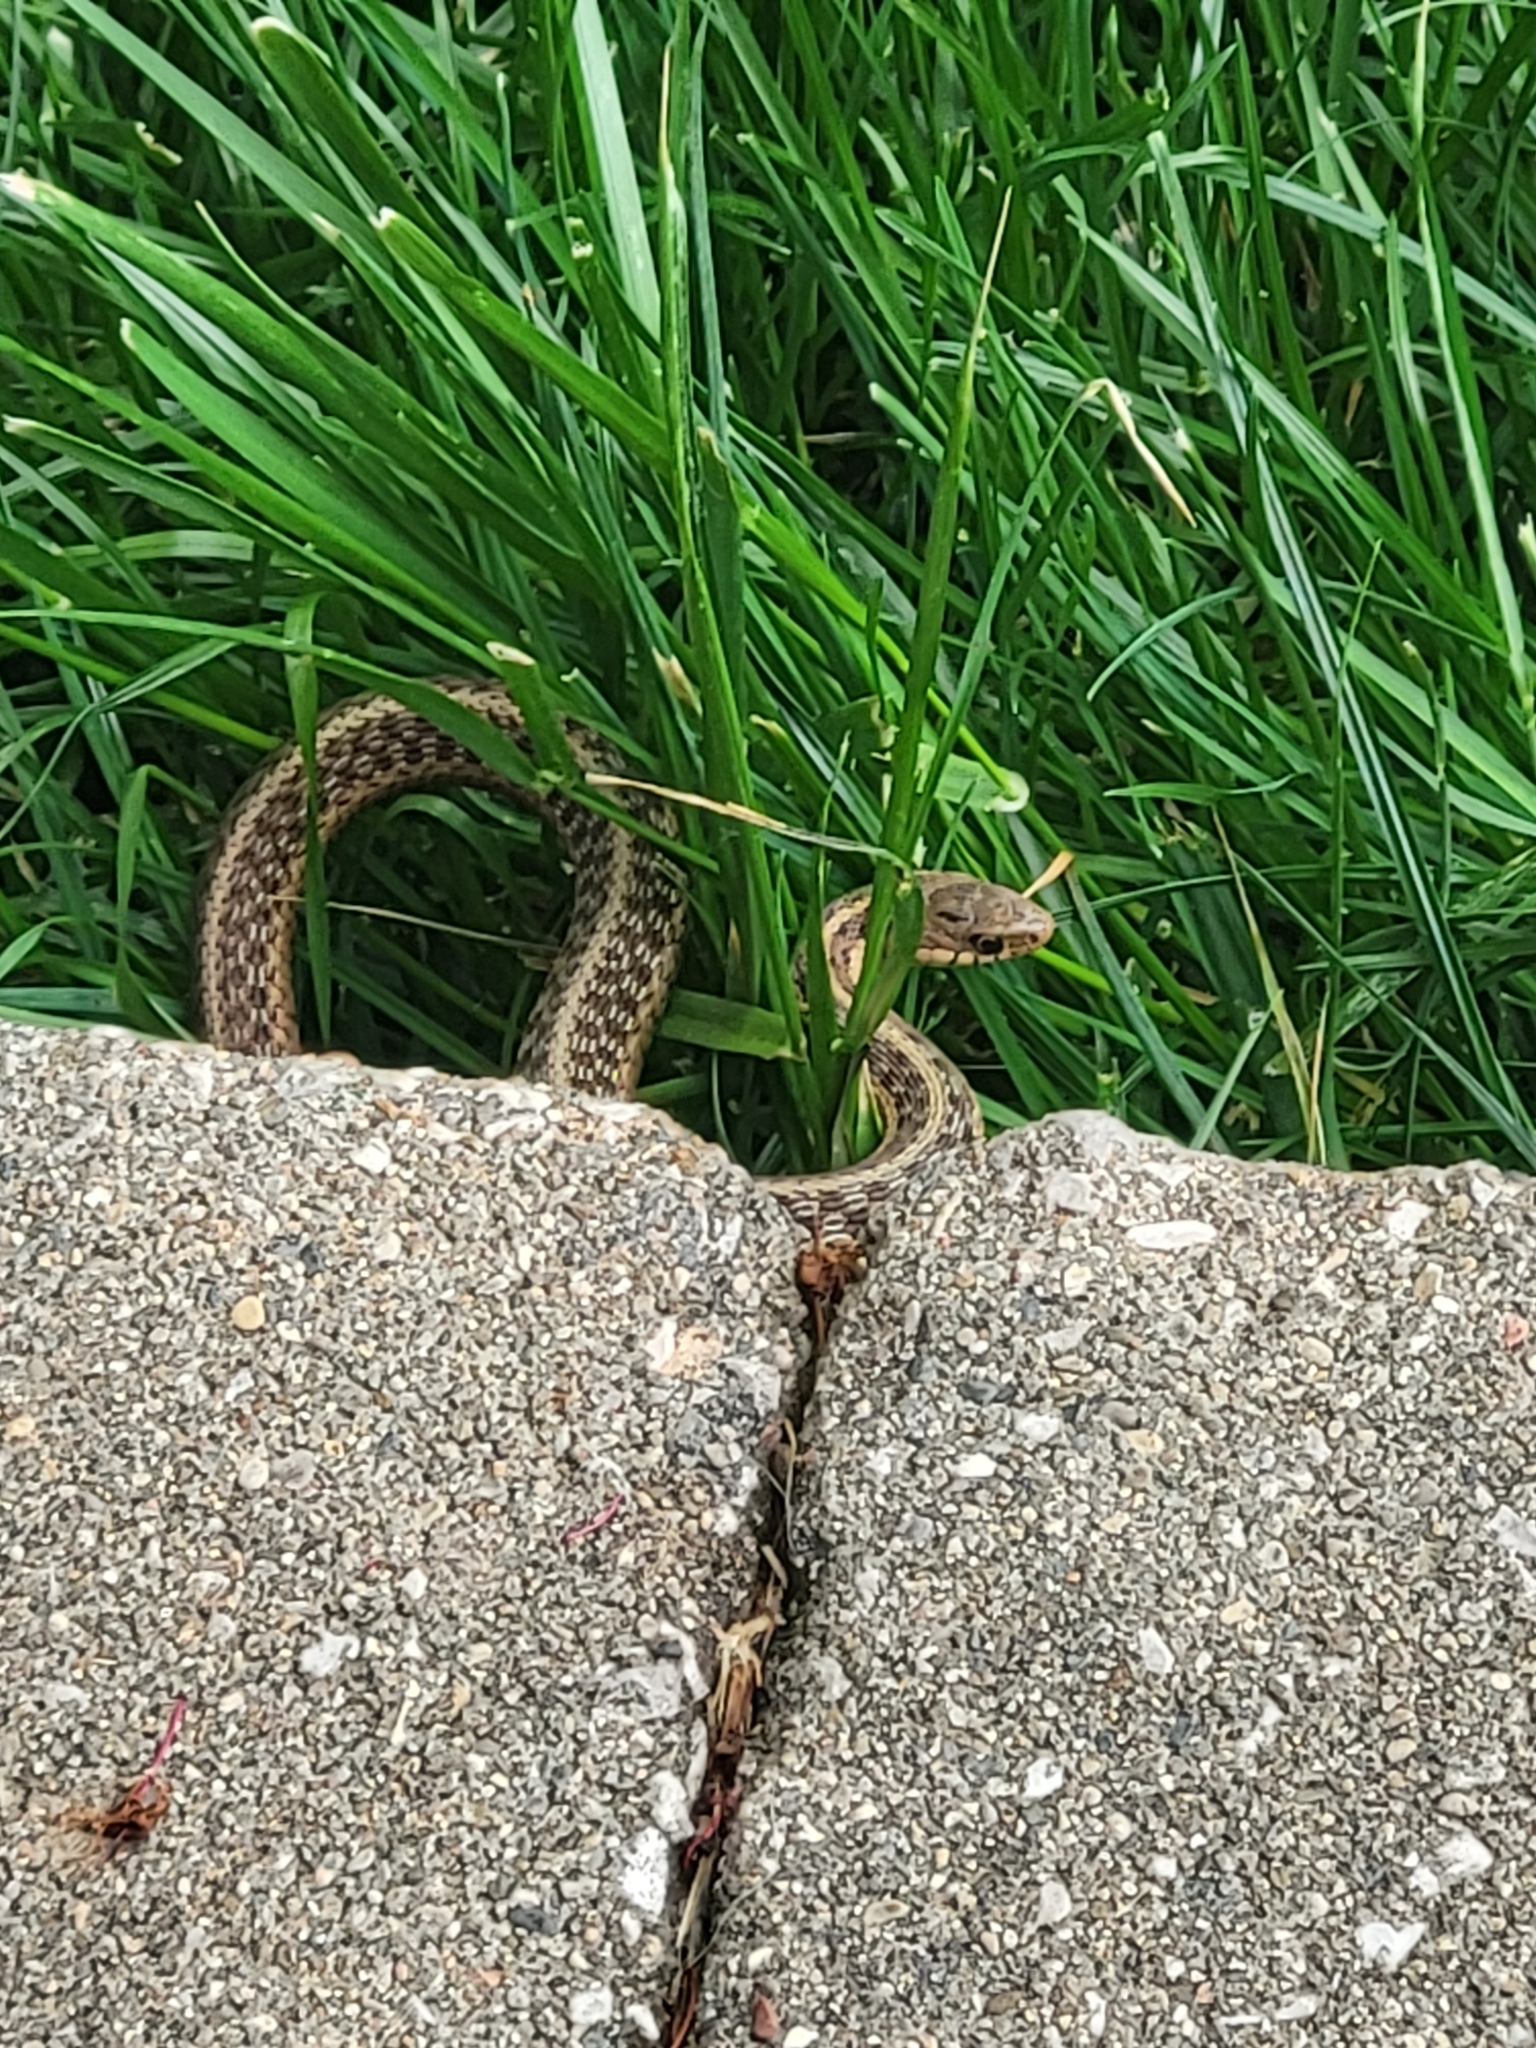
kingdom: Animalia
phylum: Chordata
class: Squamata
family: Colubridae
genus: Thamnophis
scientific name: Thamnophis sirtalis
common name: Common garter snake
